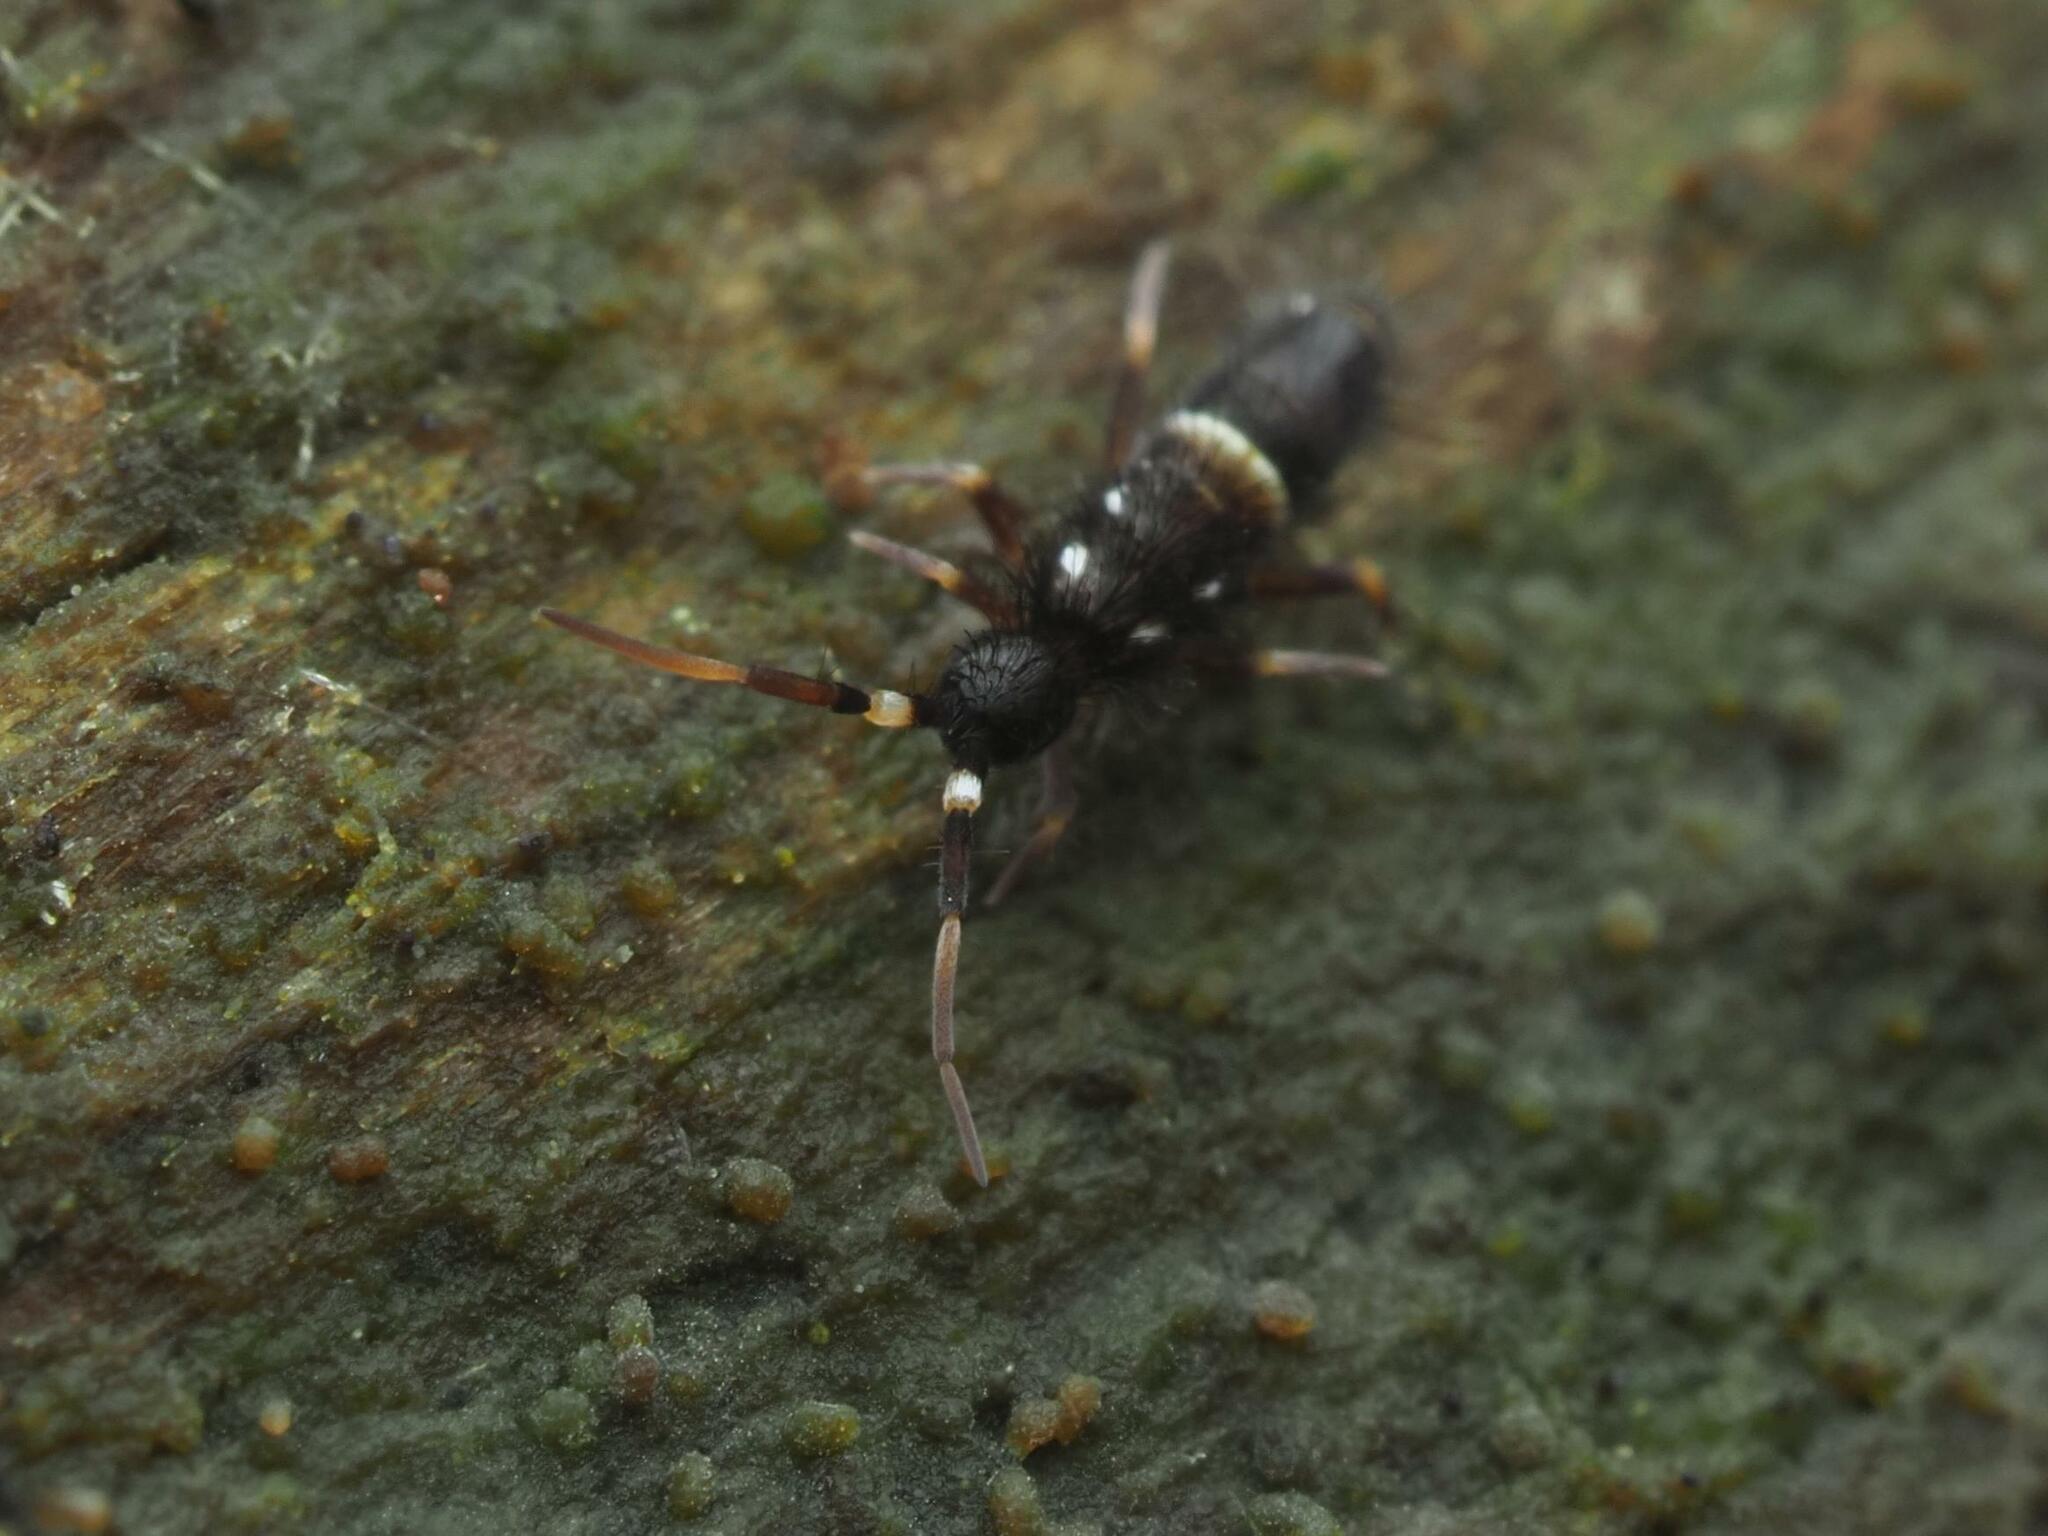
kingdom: Animalia
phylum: Arthropoda
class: Collembola
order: Entomobryomorpha
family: Orchesellidae
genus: Orchesella
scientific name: Orchesella cincta
